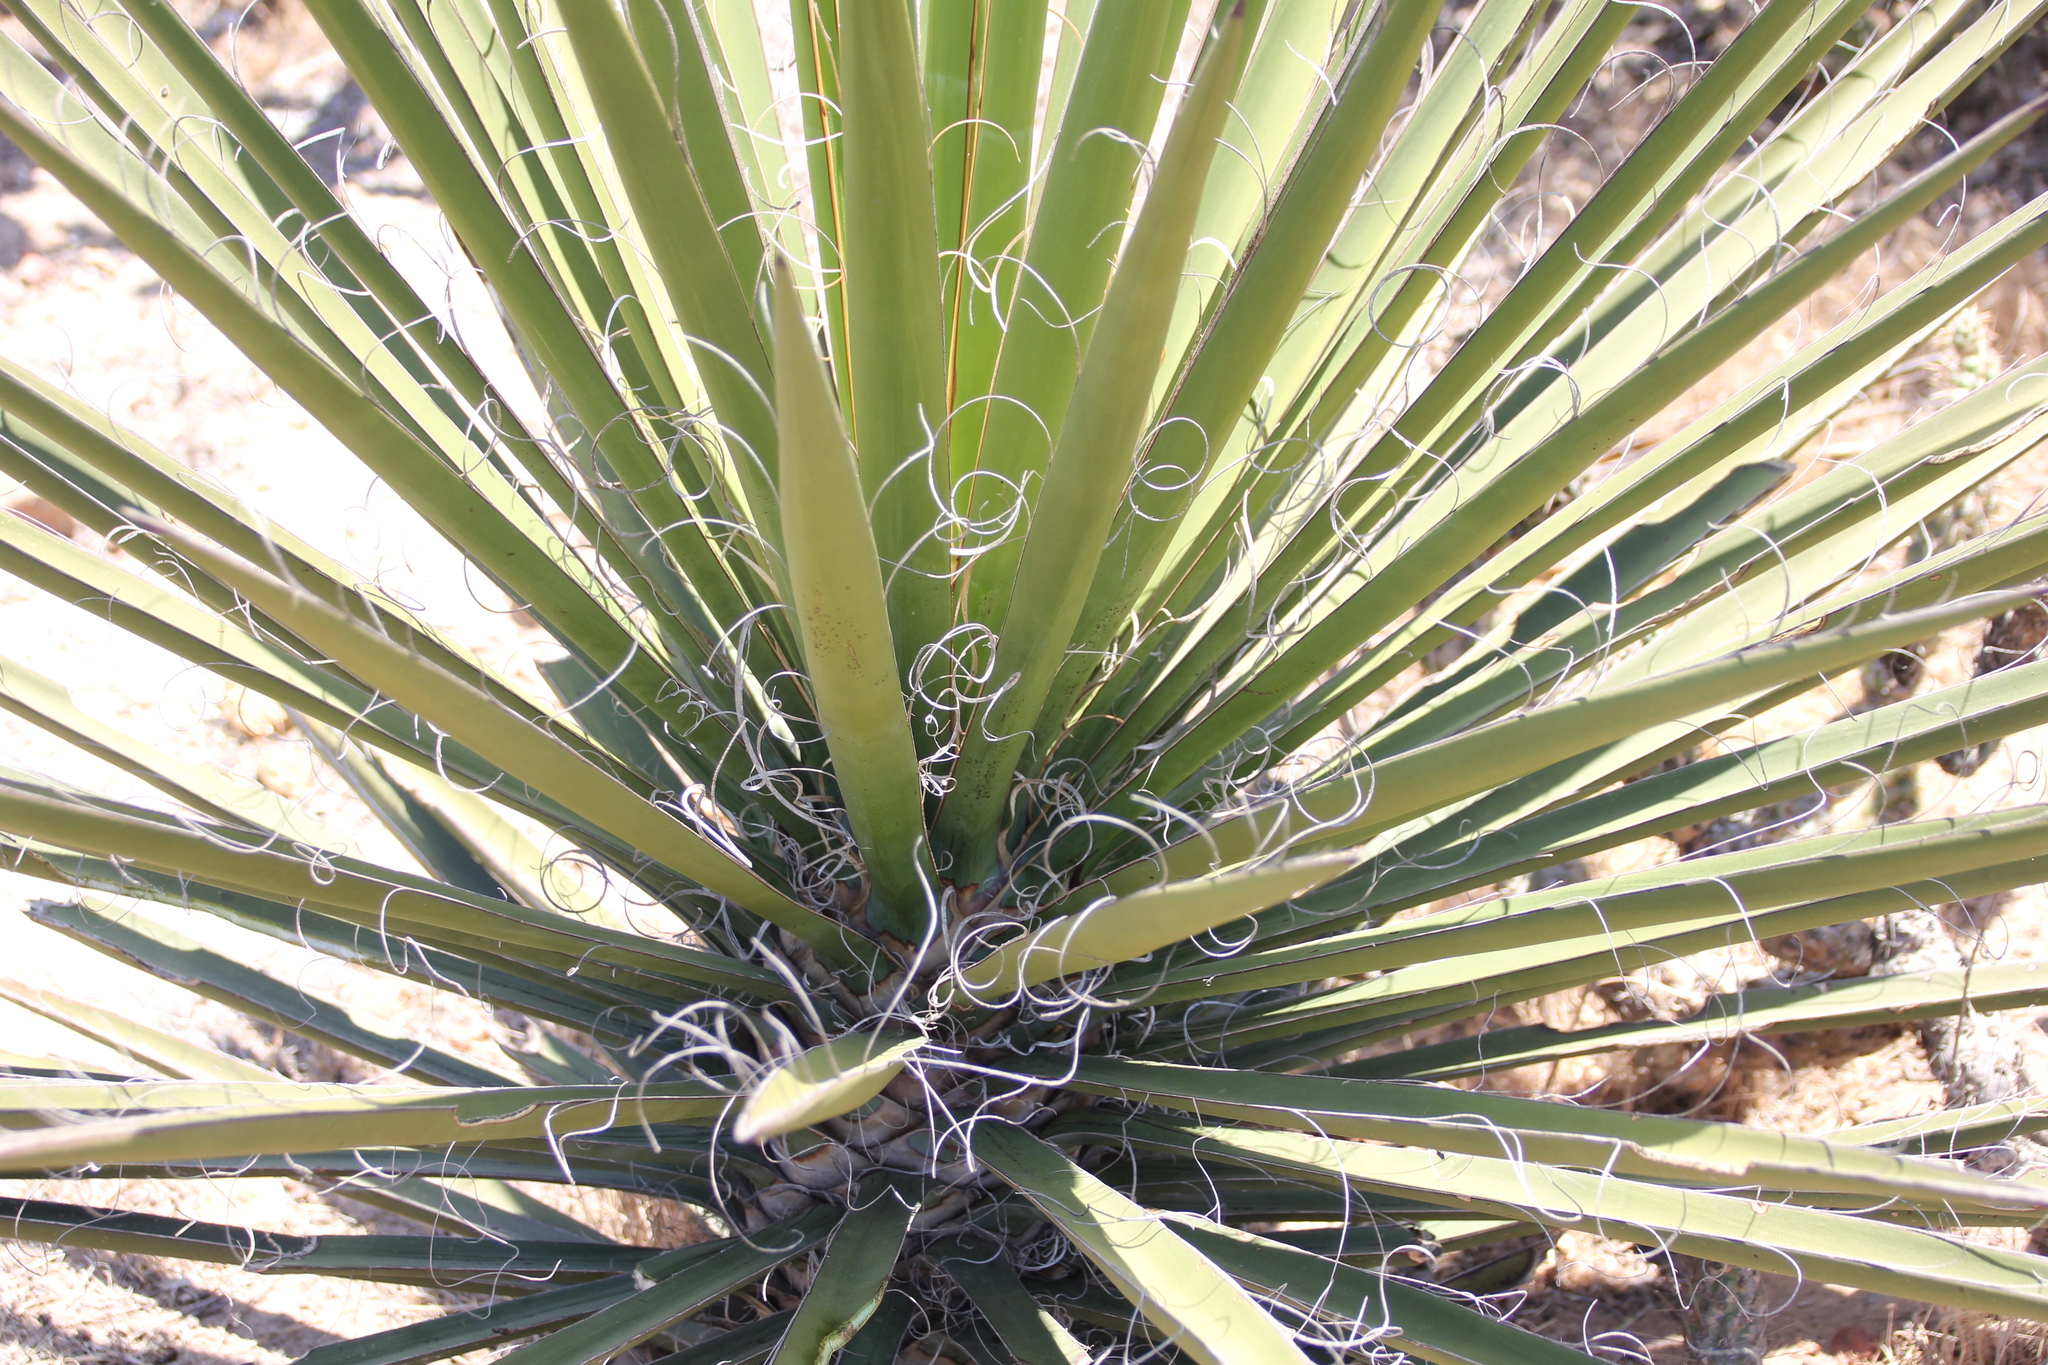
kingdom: Plantae
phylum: Tracheophyta
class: Liliopsida
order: Asparagales
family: Asparagaceae
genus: Yucca
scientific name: Yucca schidigera
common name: Mojave yucca
